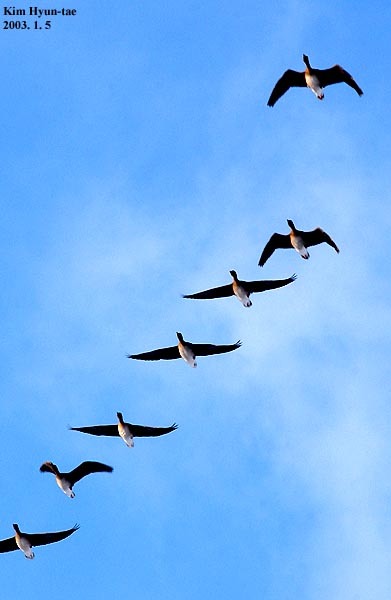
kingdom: Animalia
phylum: Chordata
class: Aves
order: Anseriformes
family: Anatidae
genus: Anser
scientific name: Anser fabalis
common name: Bean goose
